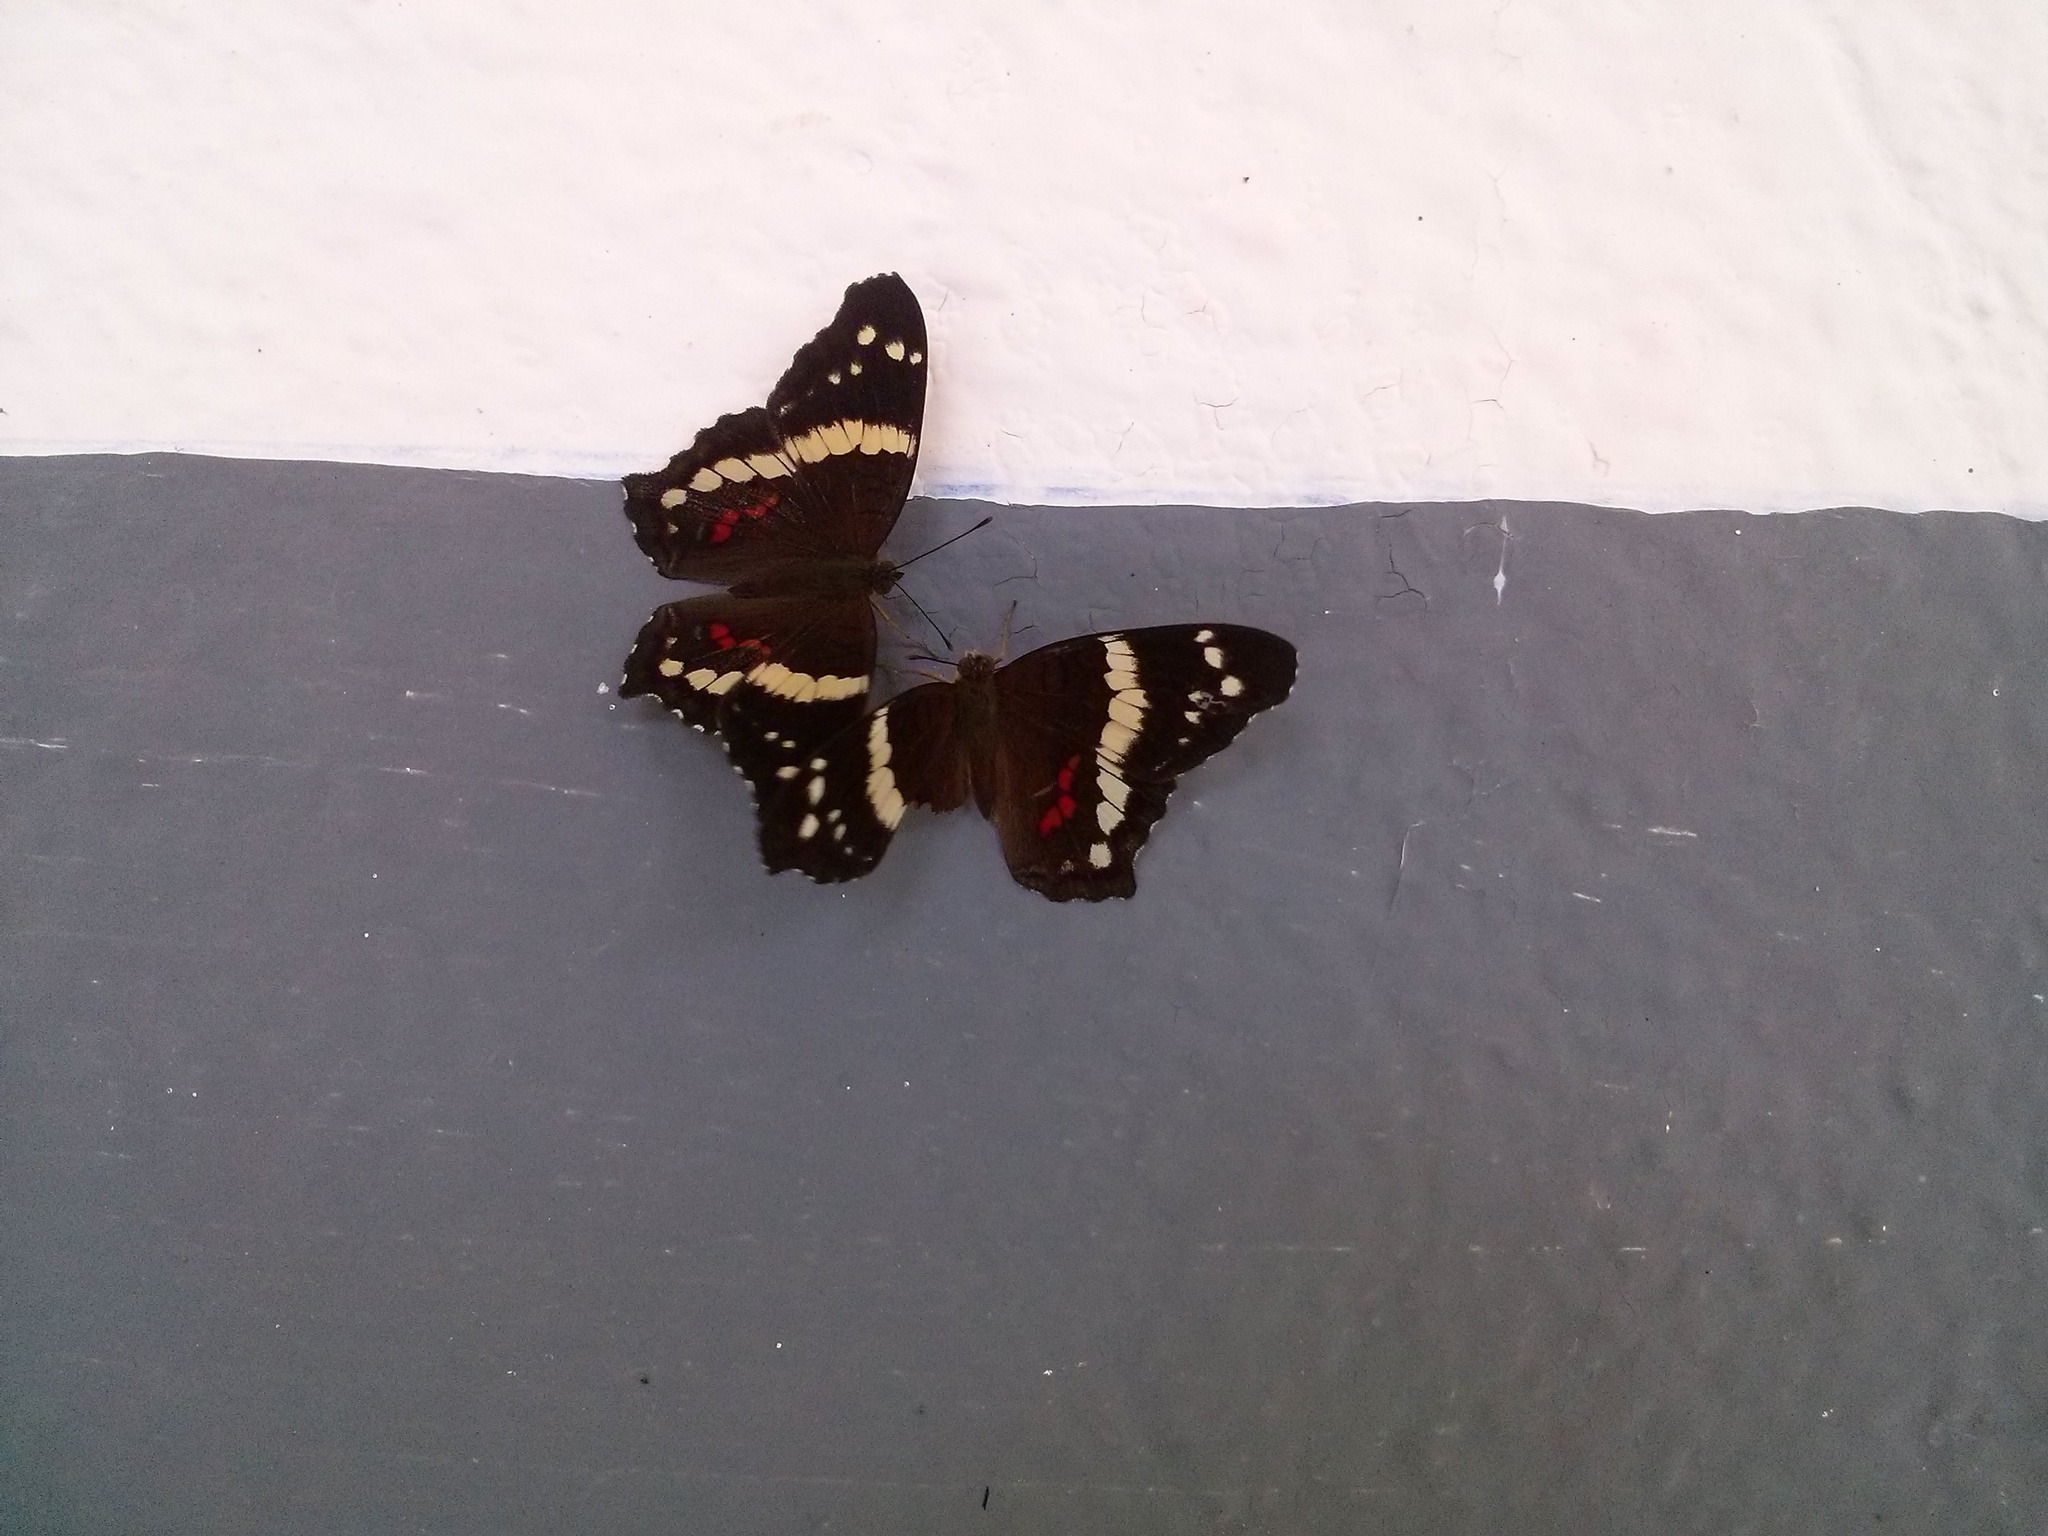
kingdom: Animalia
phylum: Arthropoda
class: Insecta
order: Lepidoptera
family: Nymphalidae
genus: Anartia
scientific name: Anartia fatima
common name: Banded peacock
